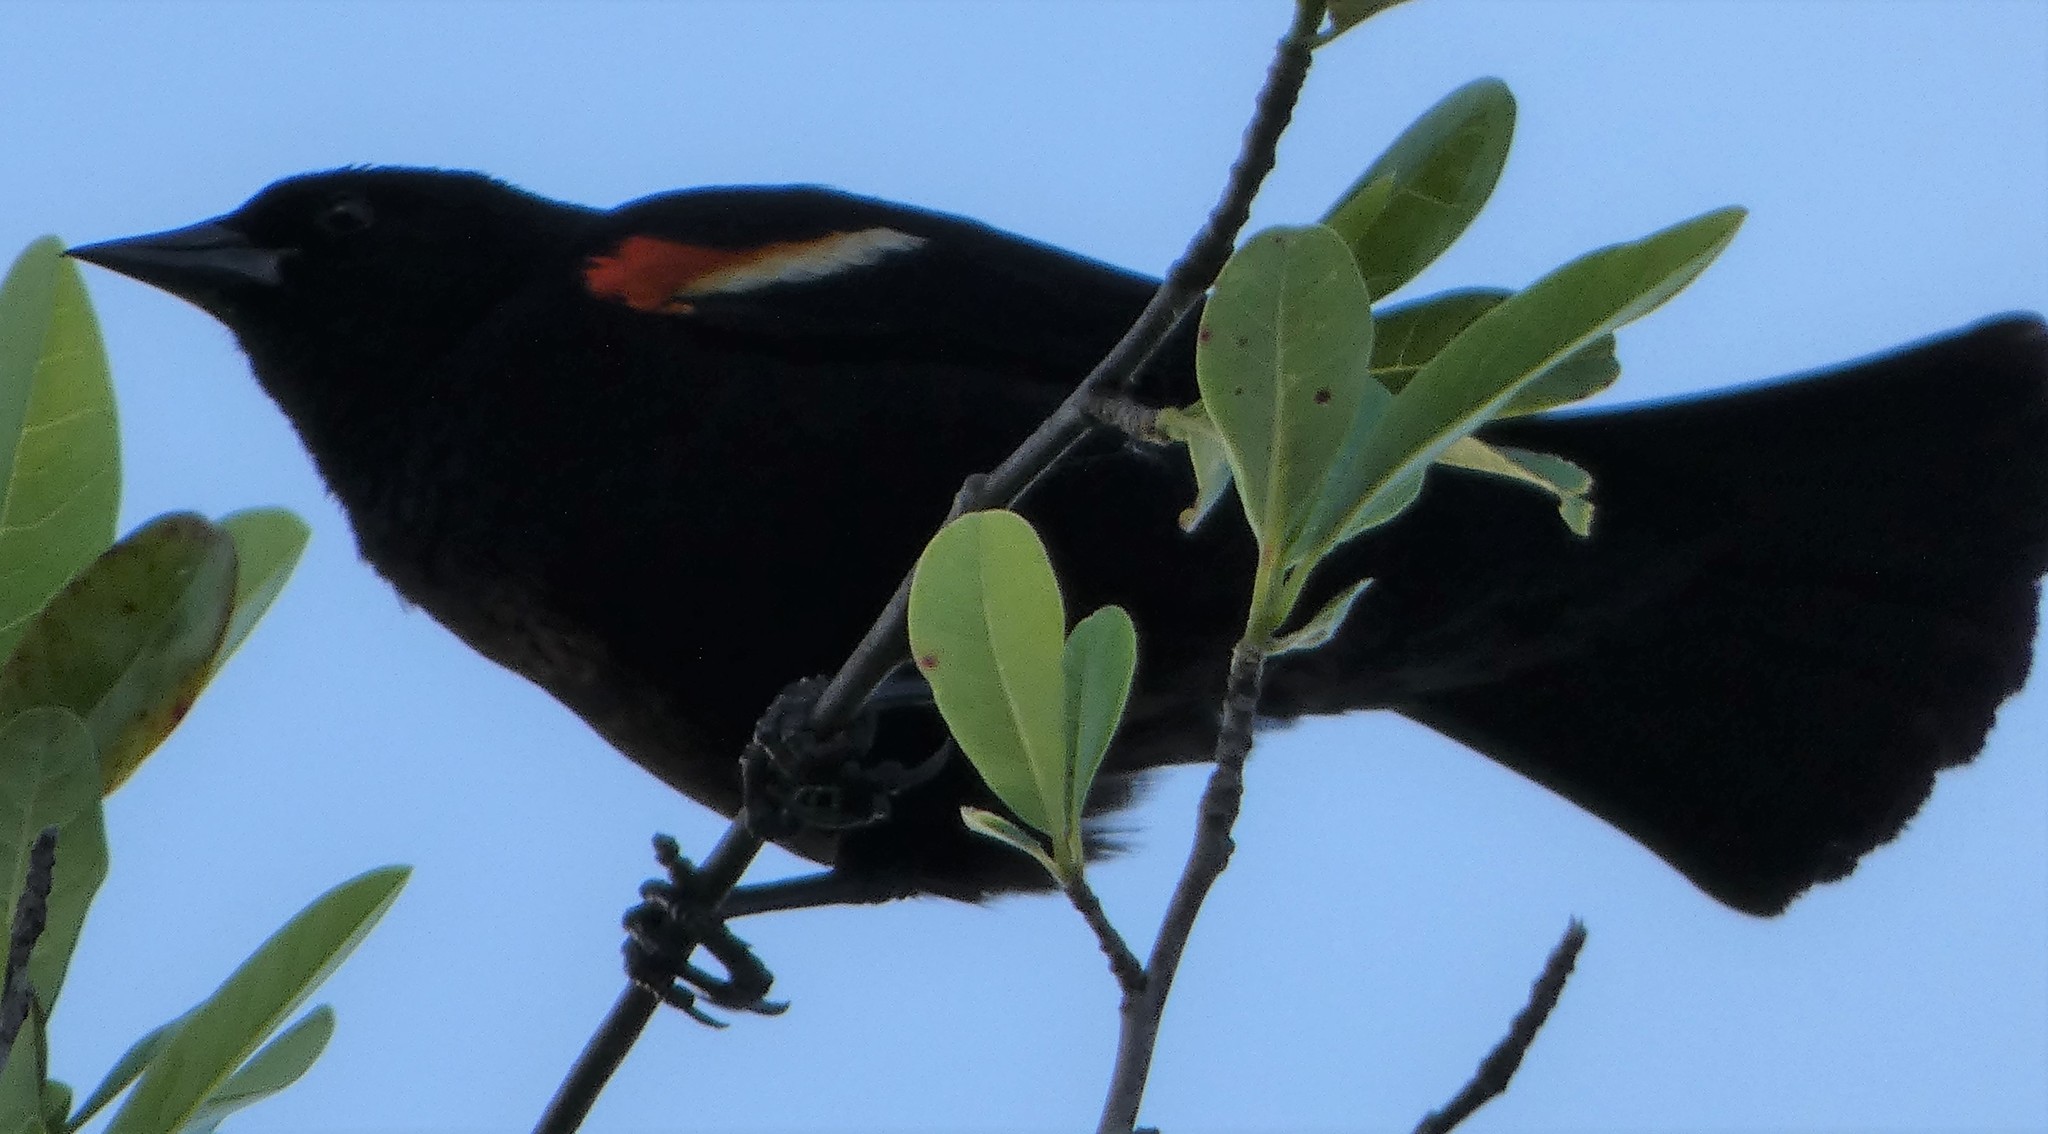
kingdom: Animalia
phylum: Chordata
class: Aves
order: Passeriformes
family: Icteridae
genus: Agelaius
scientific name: Agelaius phoeniceus
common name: Red-winged blackbird
